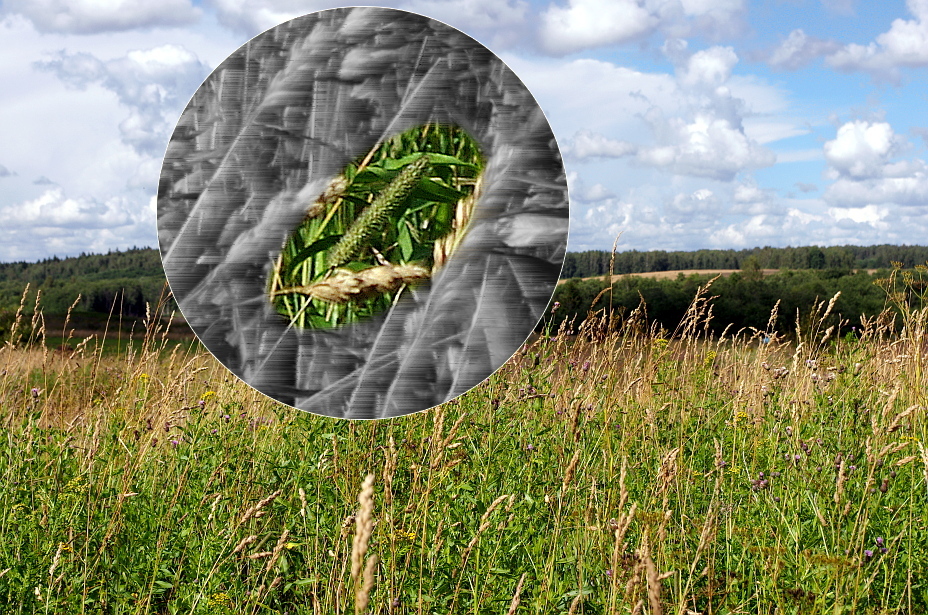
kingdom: Plantae
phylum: Tracheophyta
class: Liliopsida
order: Poales
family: Poaceae
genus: Phleum
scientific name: Phleum pratense
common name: Timothy grass
